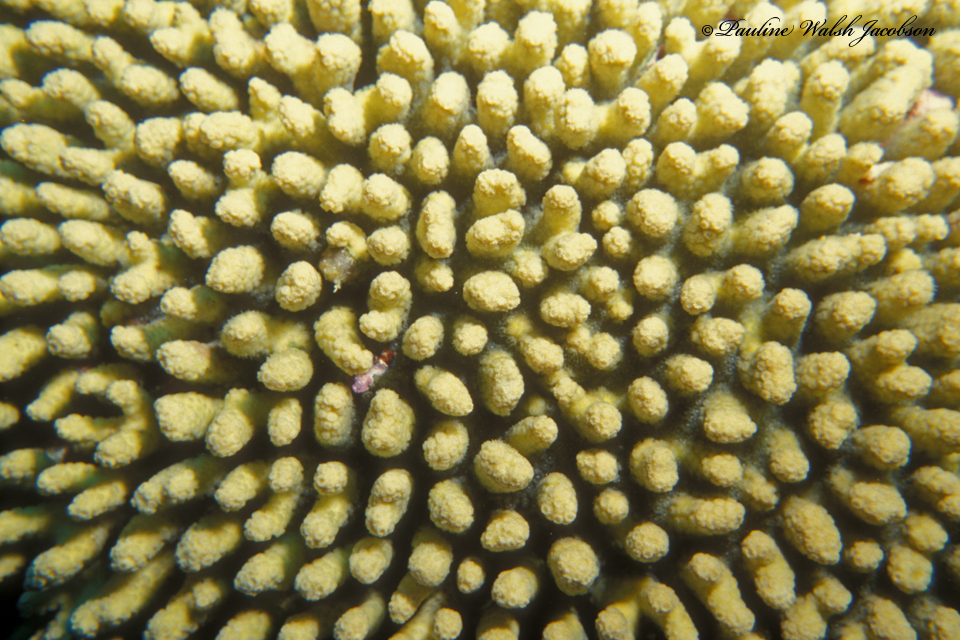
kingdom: Animalia
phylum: Cnidaria
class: Anthozoa
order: Scleractinia
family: Pocilloporidae
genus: Madracis
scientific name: Madracis auretenra
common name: Yellow pencil coral
